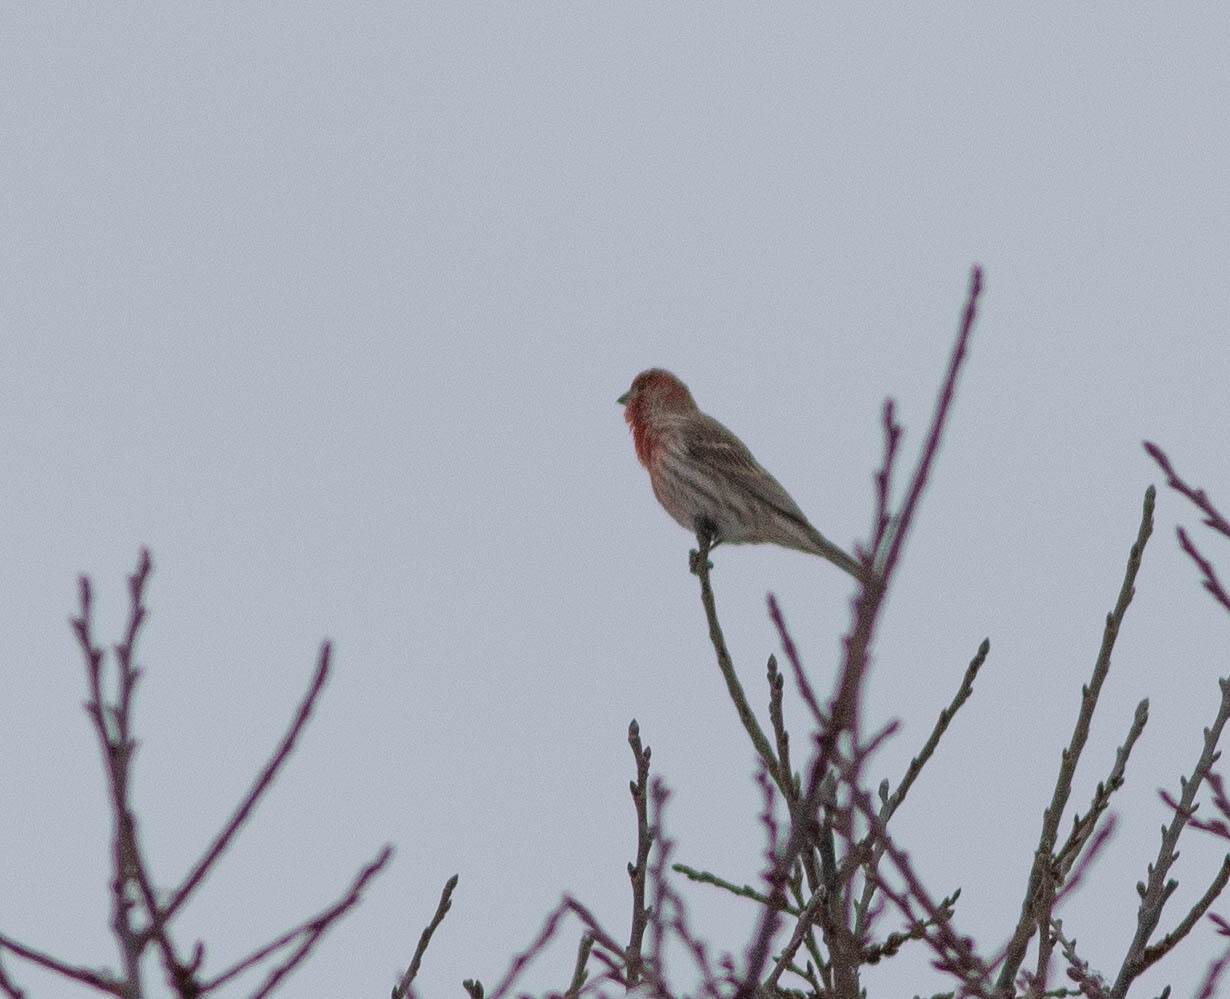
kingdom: Animalia
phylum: Chordata
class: Aves
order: Passeriformes
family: Fringillidae
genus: Haemorhous
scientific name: Haemorhous mexicanus
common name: House finch
